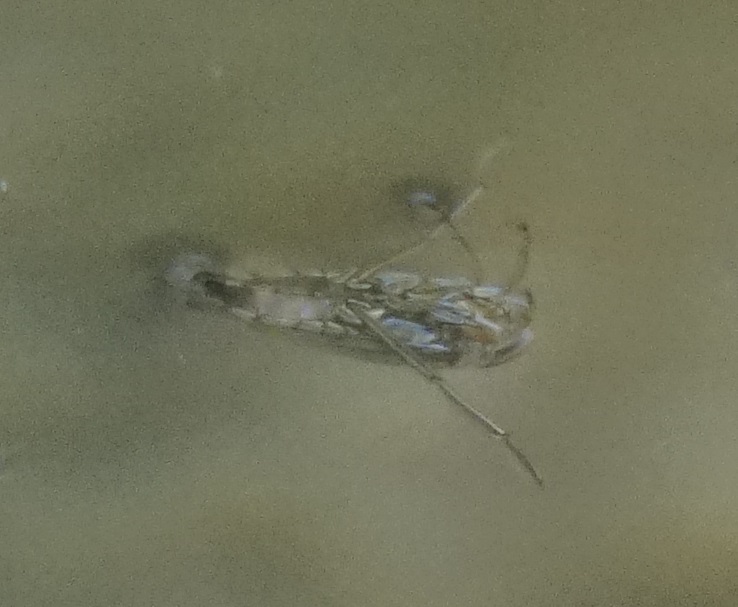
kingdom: Animalia
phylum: Arthropoda
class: Insecta
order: Hemiptera
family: Notonectidae
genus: Enithares
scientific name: Enithares
